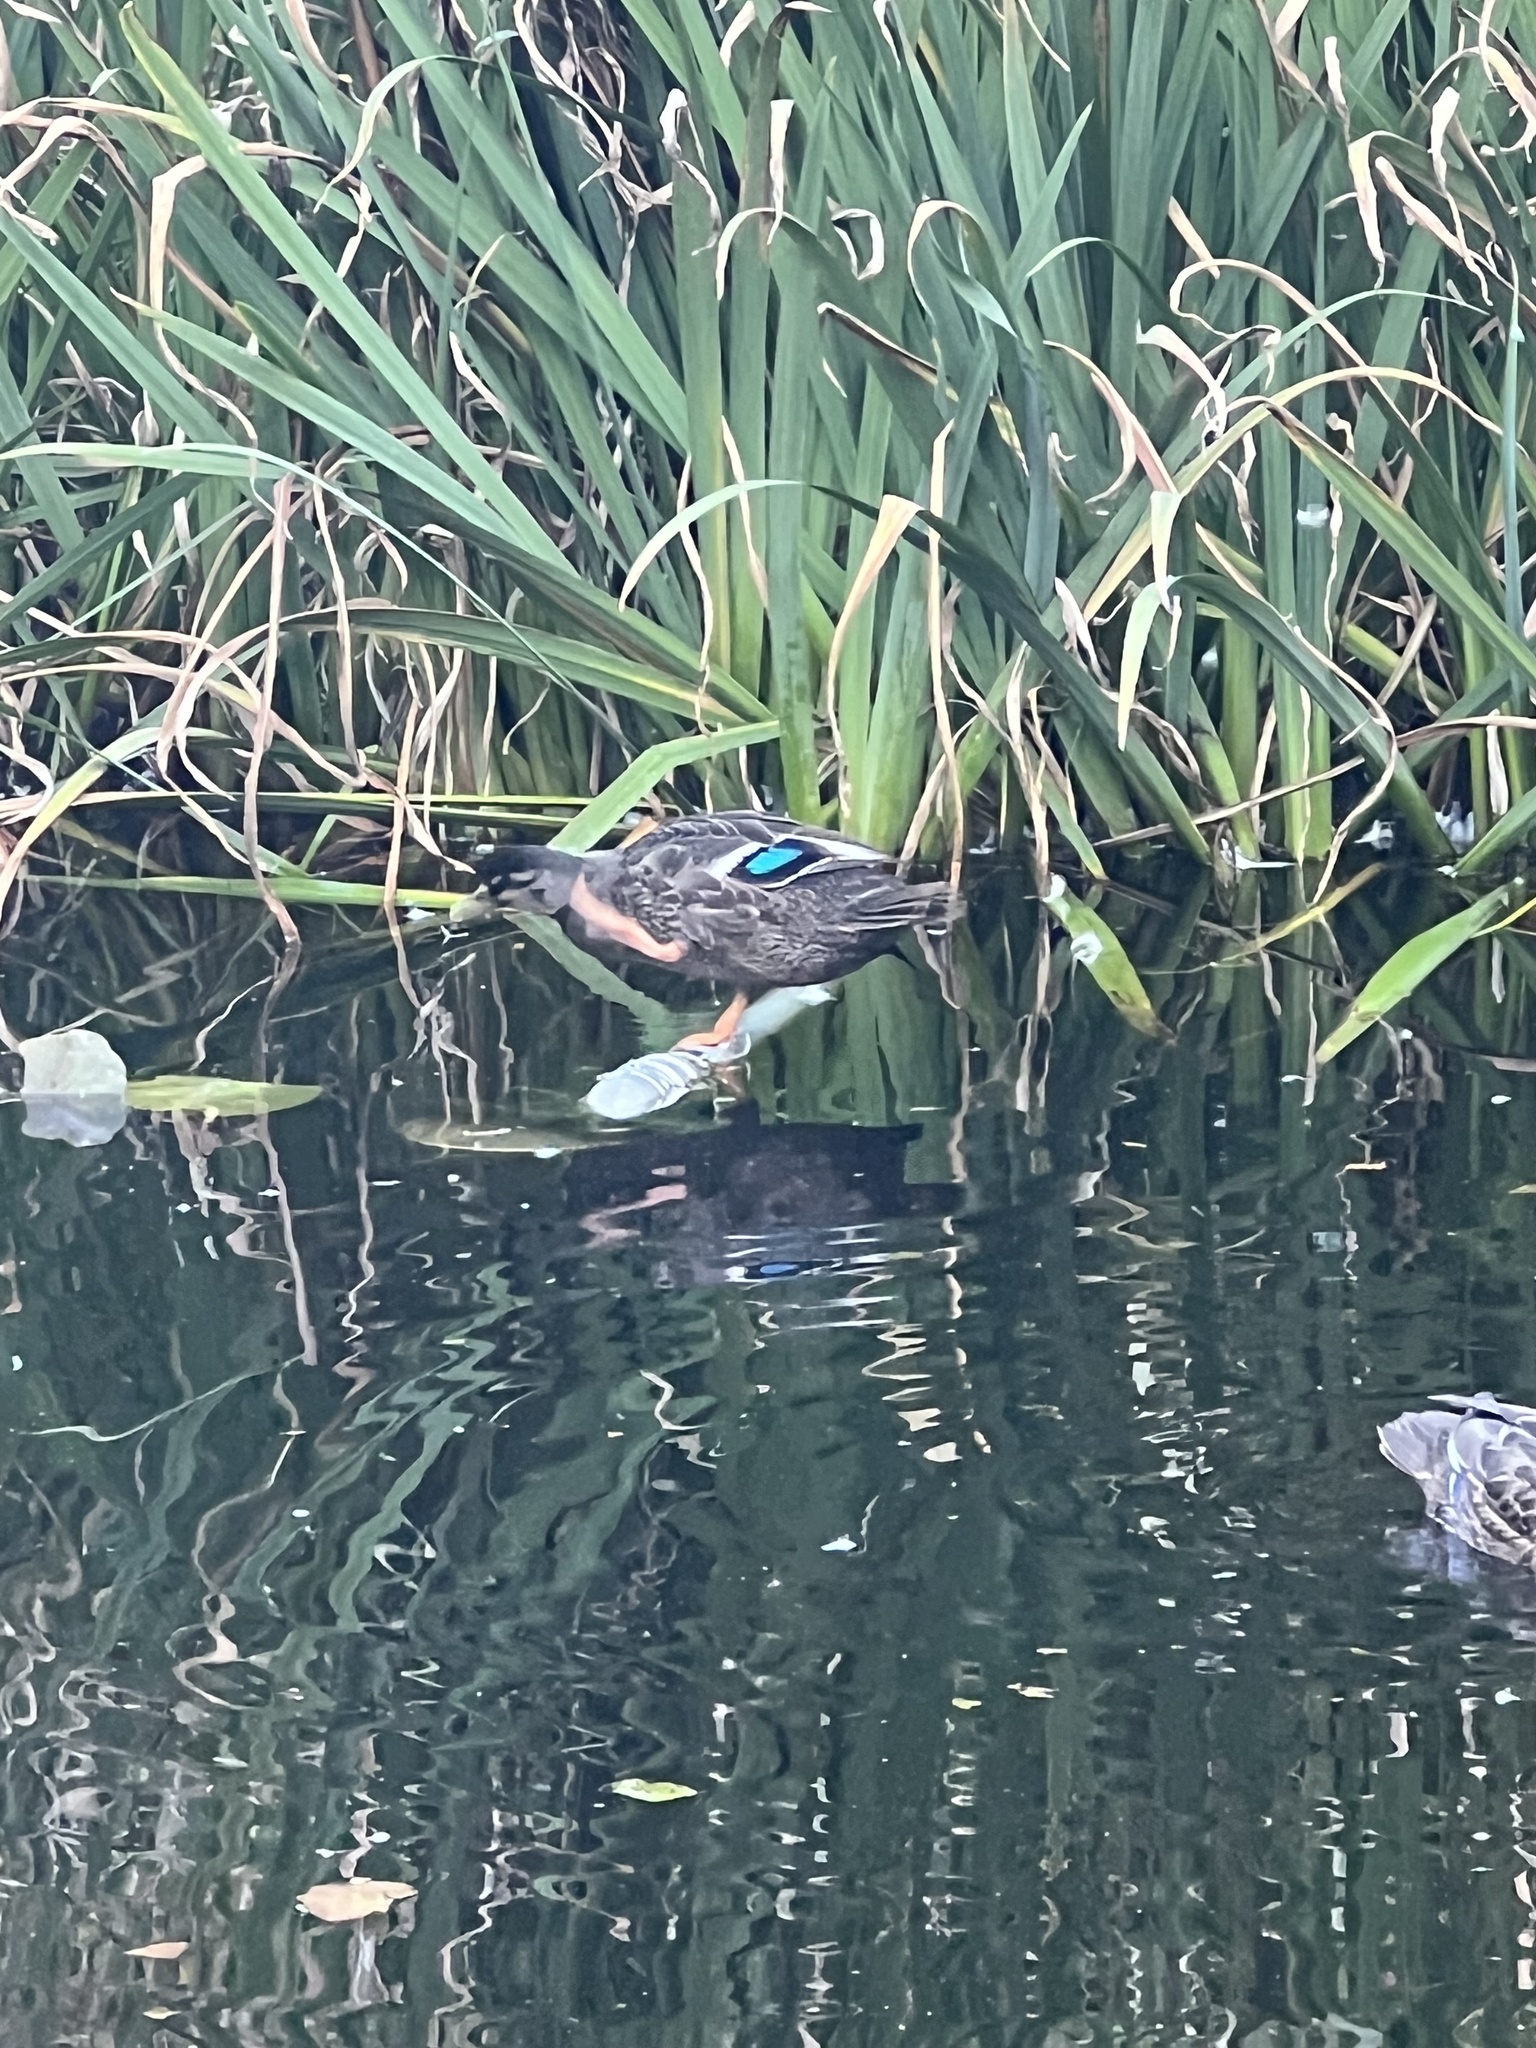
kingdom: Animalia
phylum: Chordata
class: Aves
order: Anseriformes
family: Anatidae
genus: Anas
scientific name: Anas
